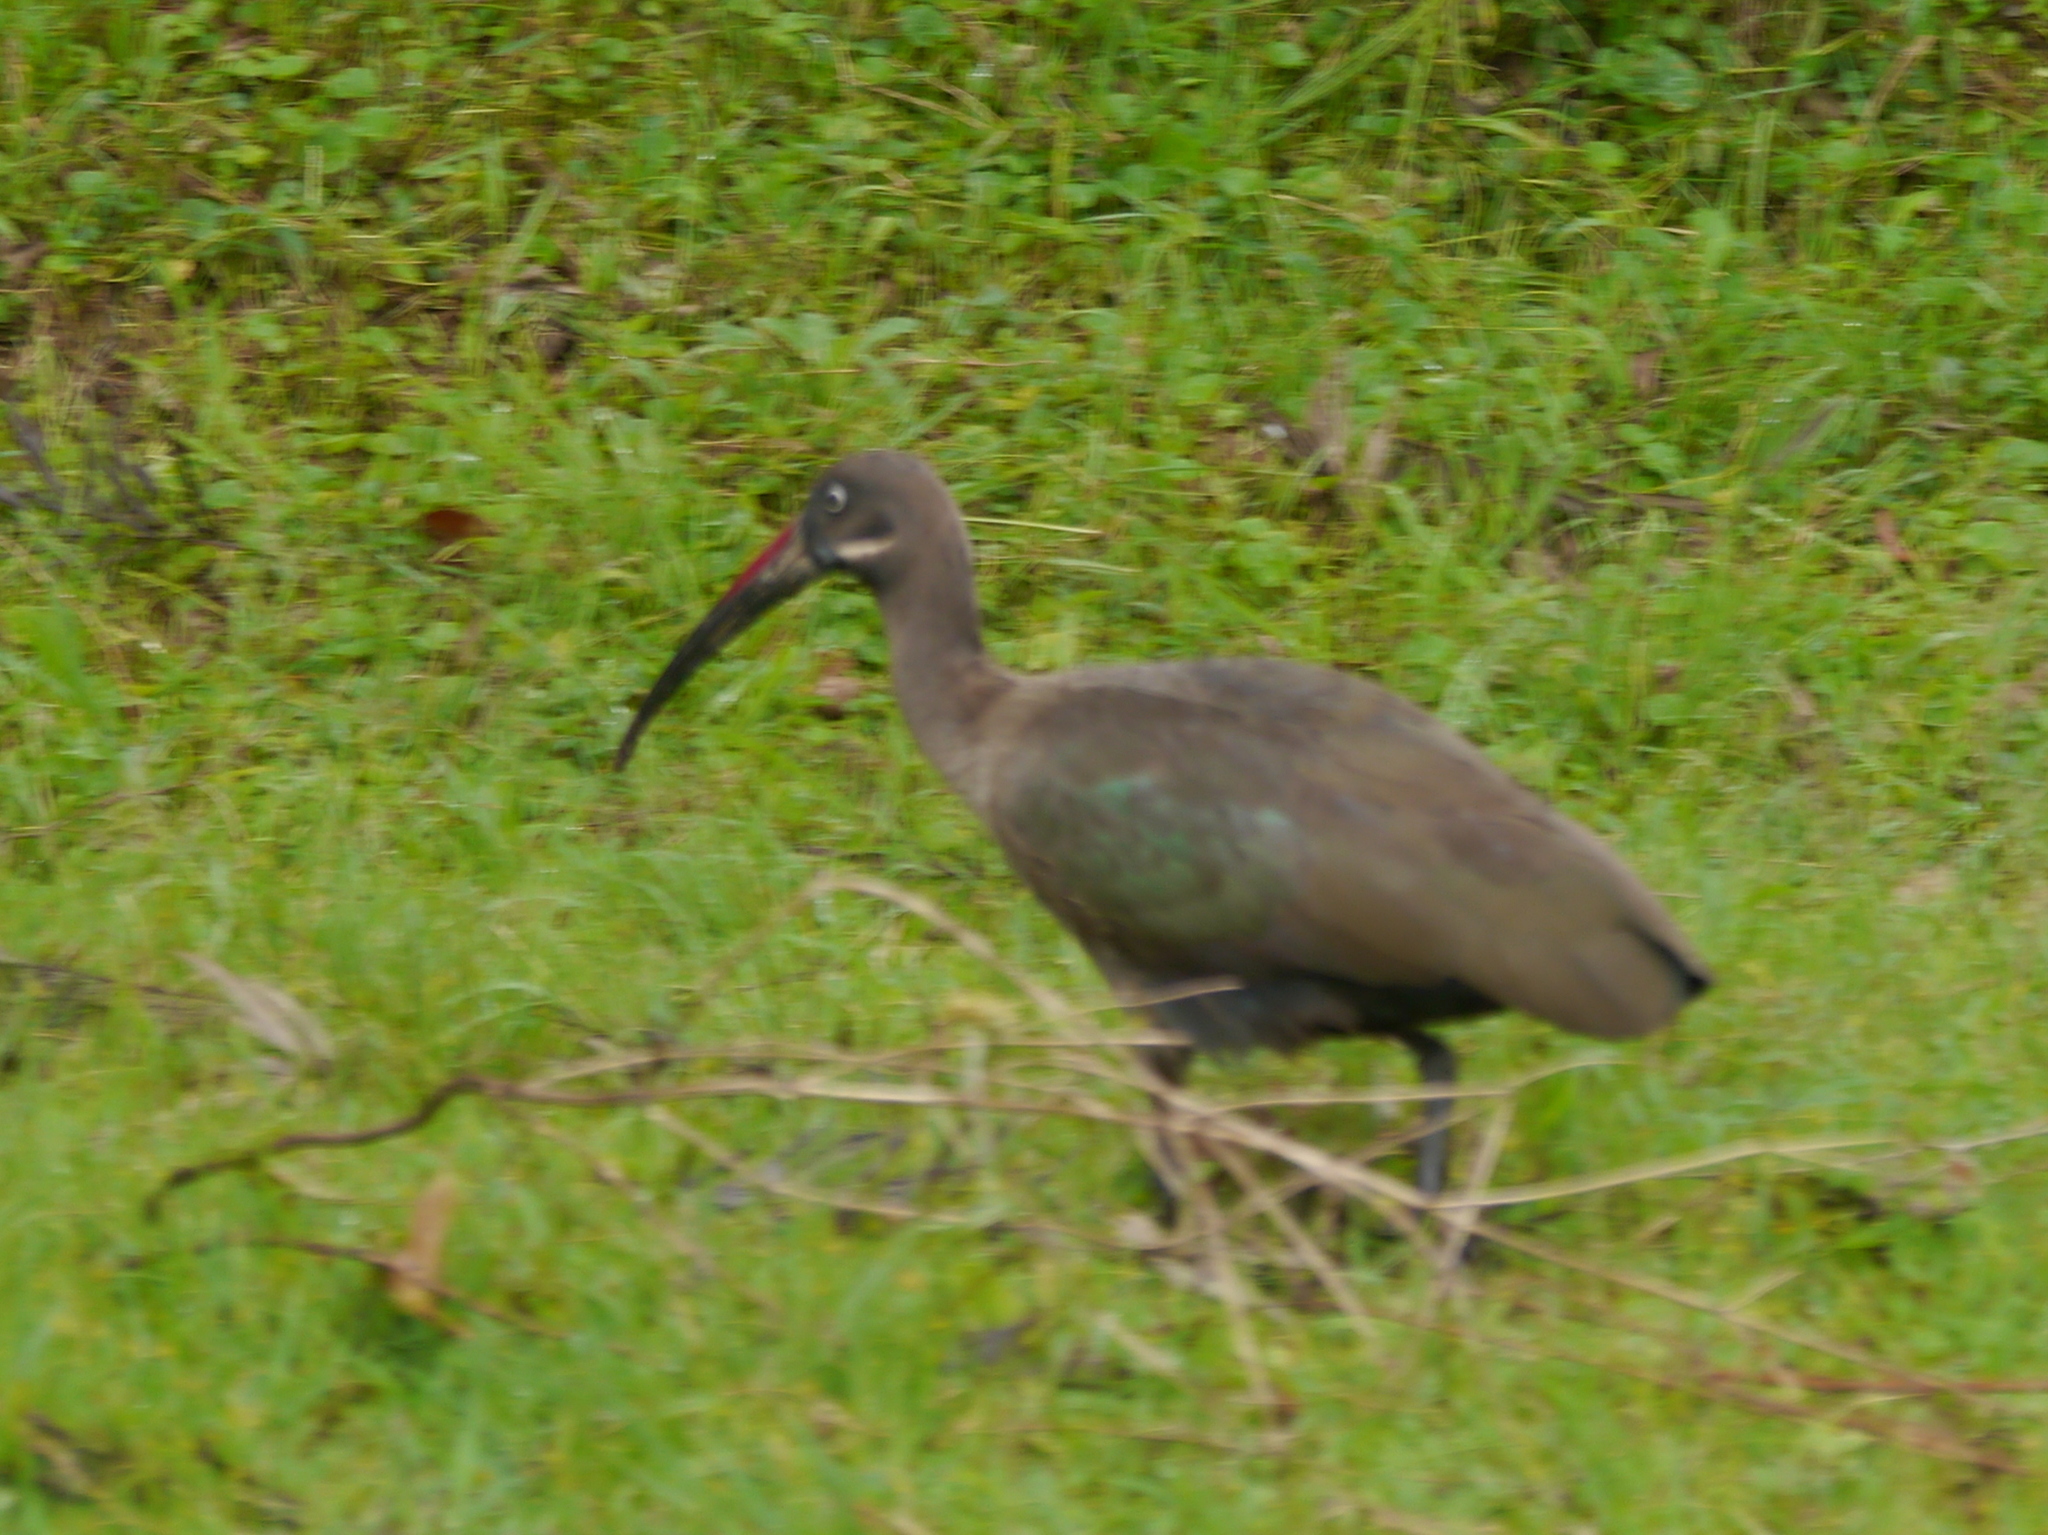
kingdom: Animalia
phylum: Chordata
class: Aves
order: Pelecaniformes
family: Threskiornithidae
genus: Bostrychia
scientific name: Bostrychia hagedash
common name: Hadada ibis
